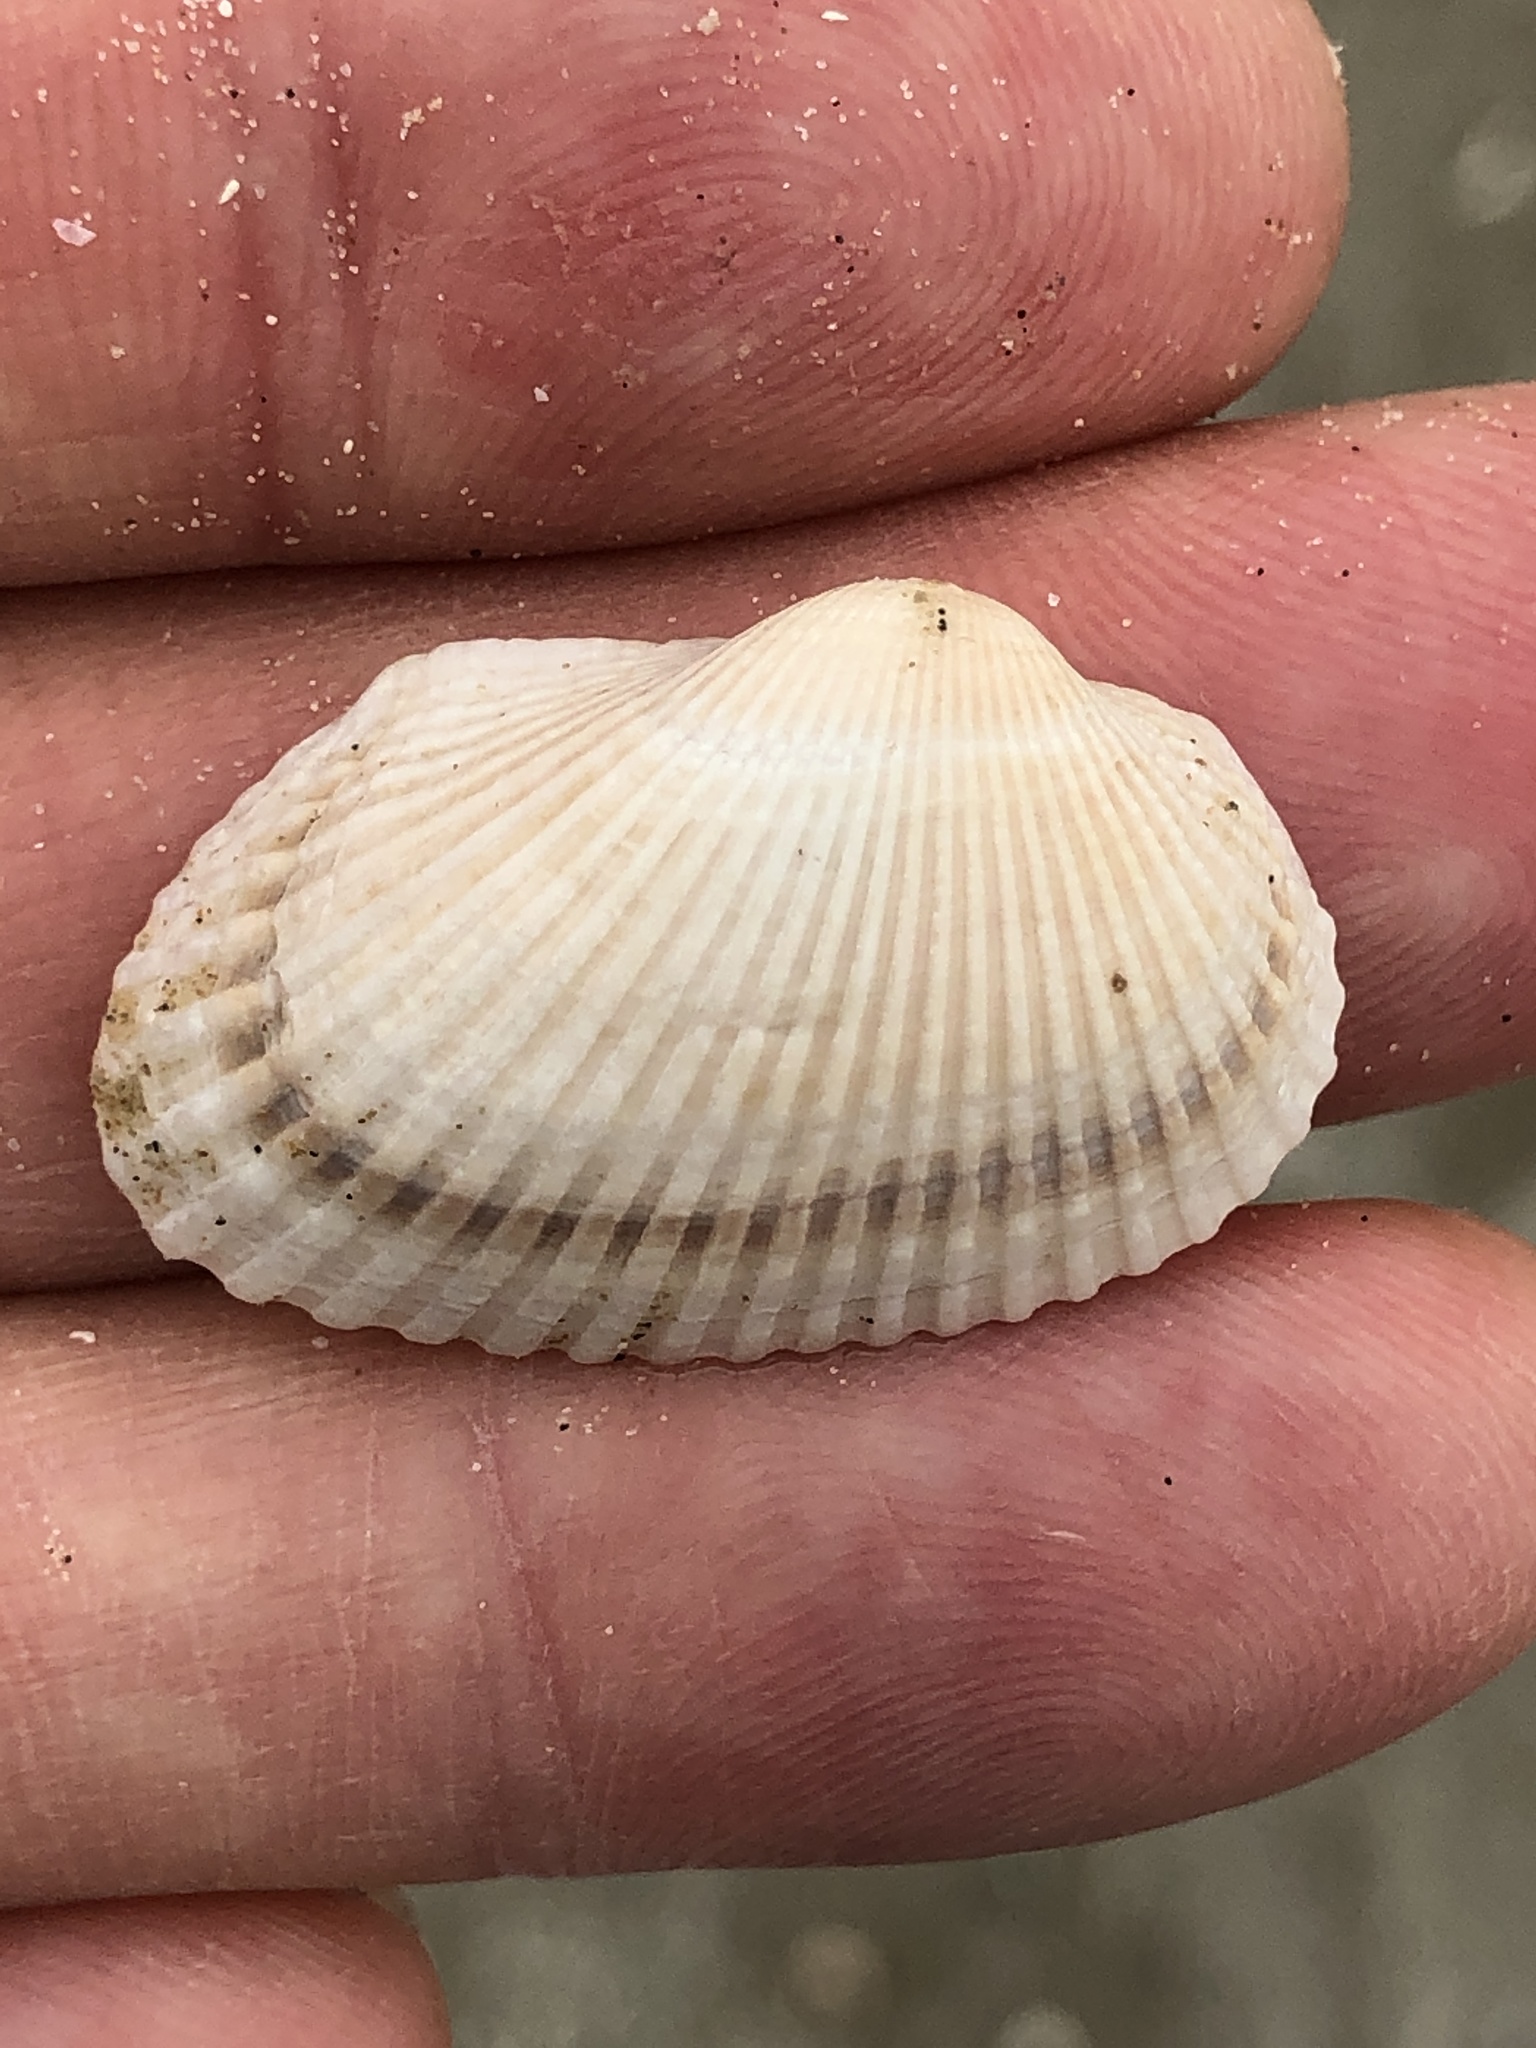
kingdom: Animalia
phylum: Mollusca
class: Bivalvia
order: Arcida
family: Arcidae
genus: Anadara
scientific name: Anadara transversa
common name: Transverse ark
